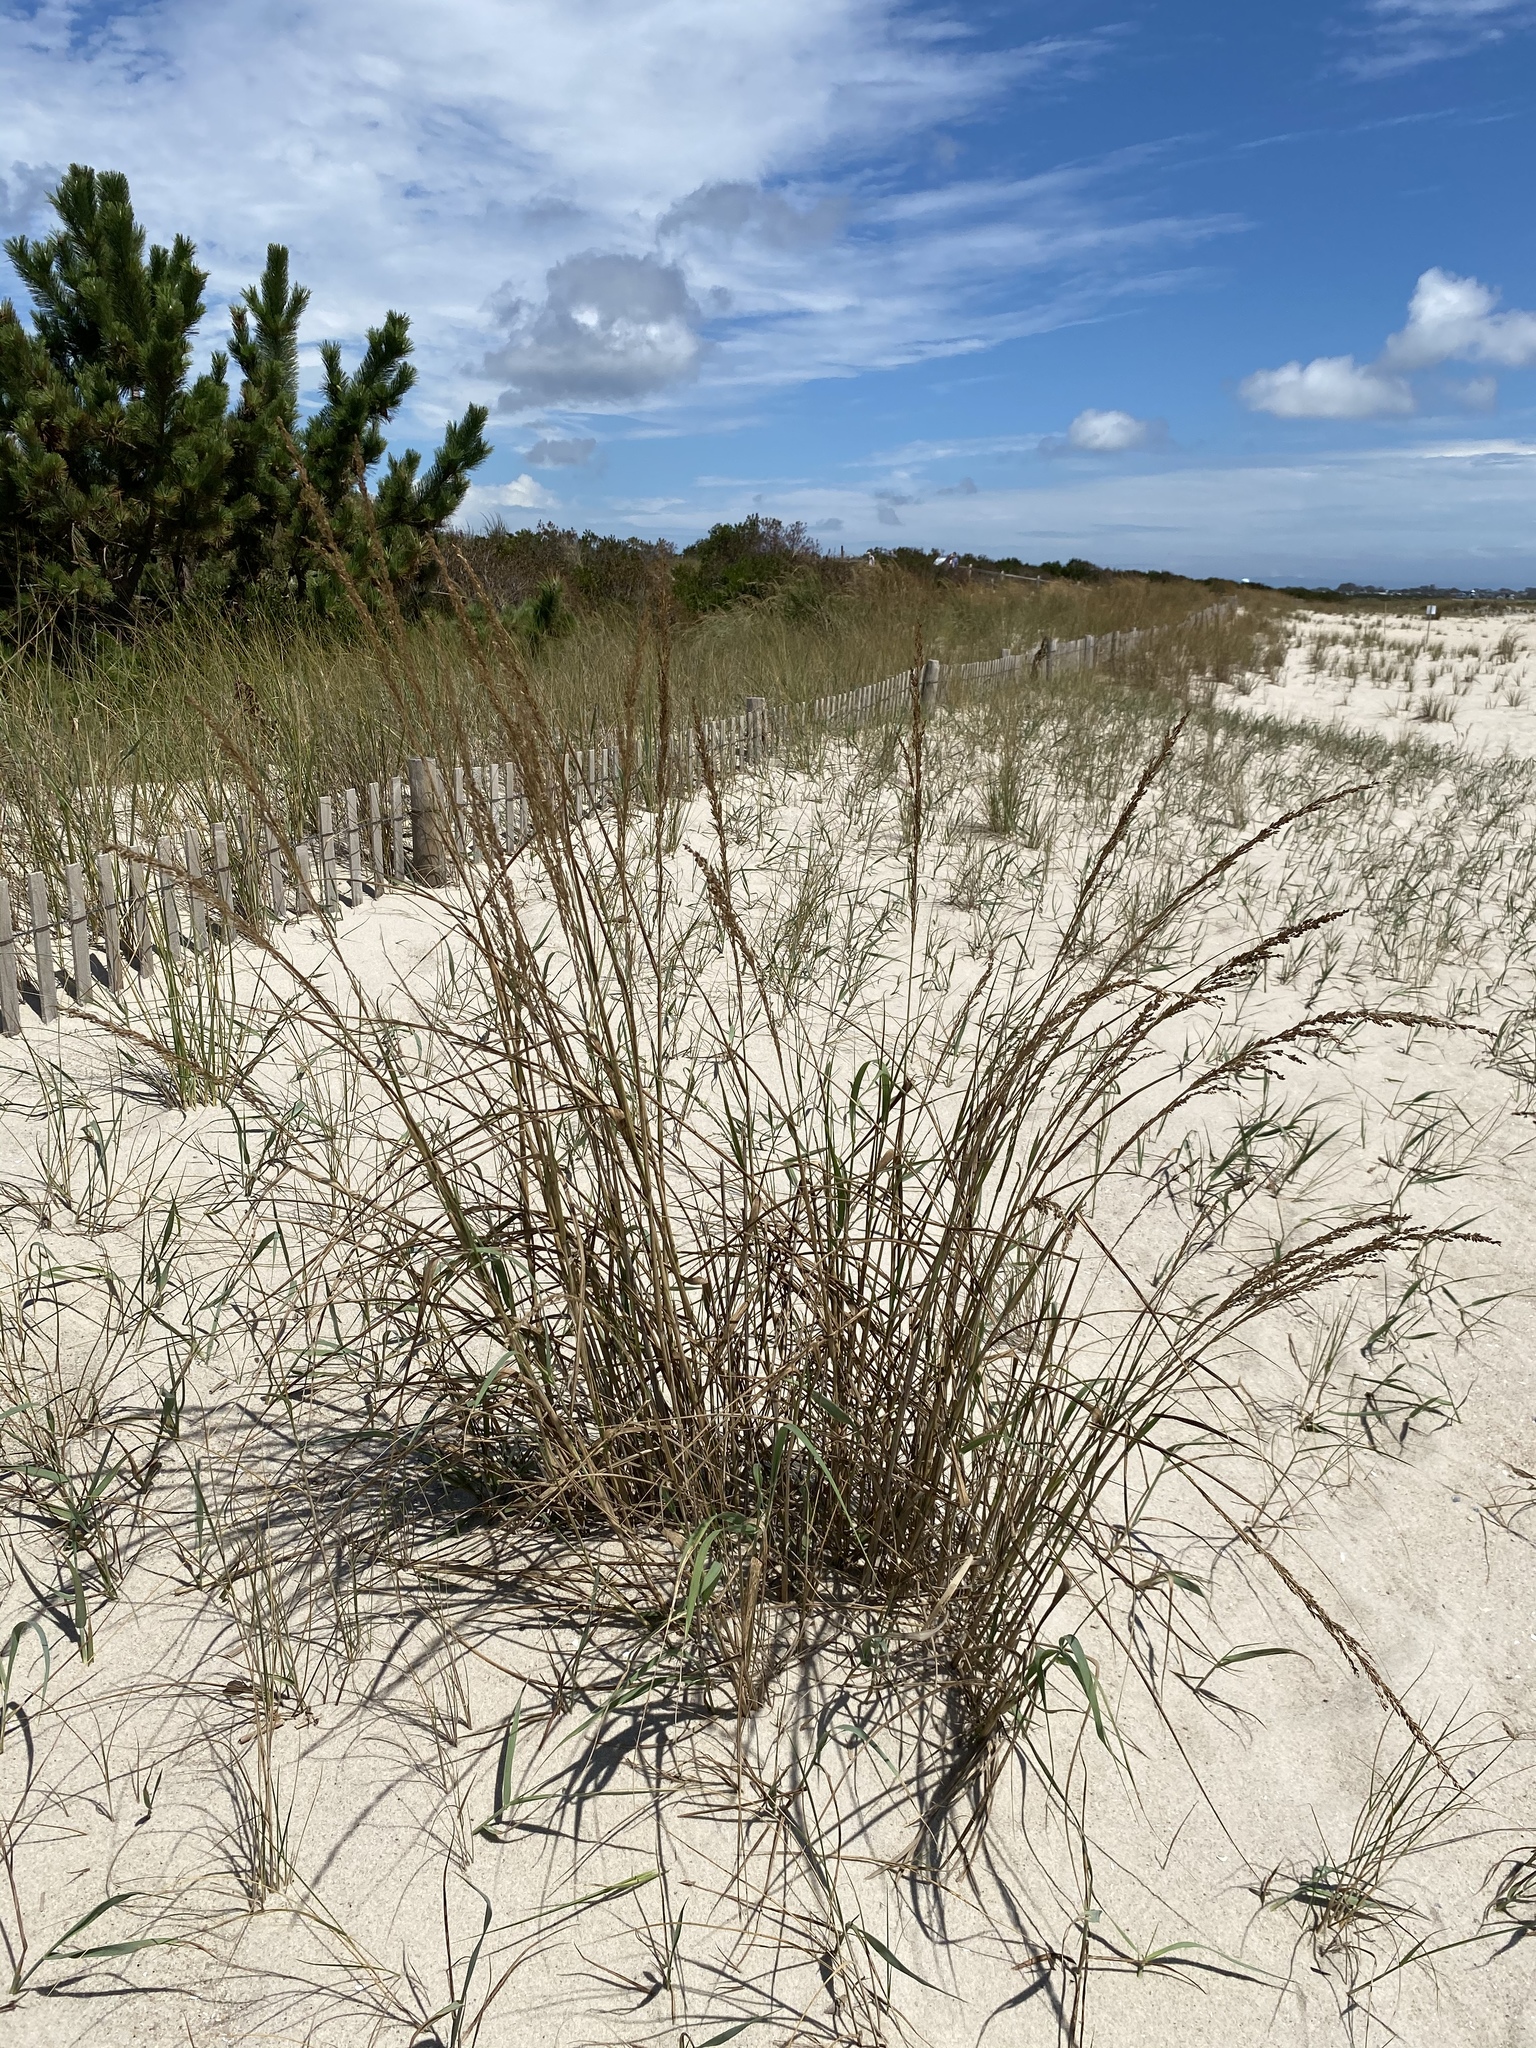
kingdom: Plantae
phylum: Tracheophyta
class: Liliopsida
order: Poales
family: Poaceae
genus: Panicum
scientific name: Panicum amarum
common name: Bitter panicum
